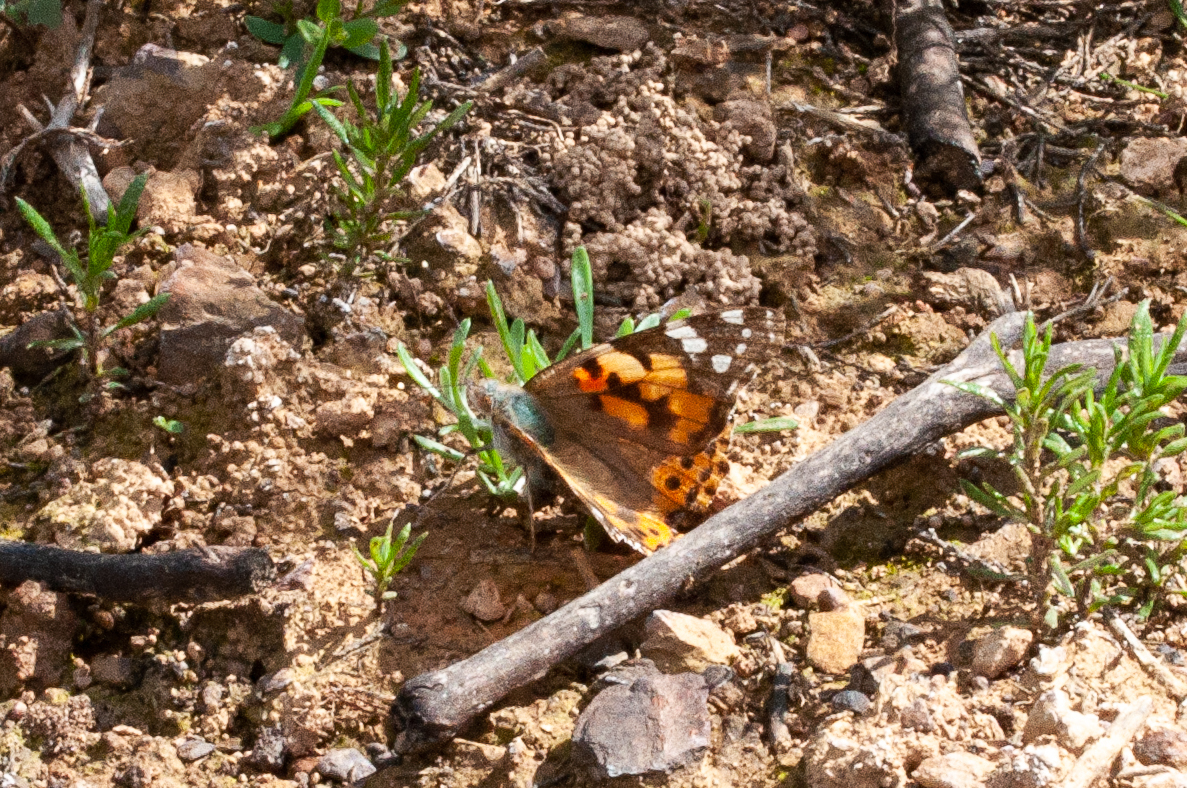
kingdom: Animalia
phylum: Arthropoda
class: Insecta
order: Lepidoptera
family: Nymphalidae
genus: Vanessa
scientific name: Vanessa cardui
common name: Painted lady
